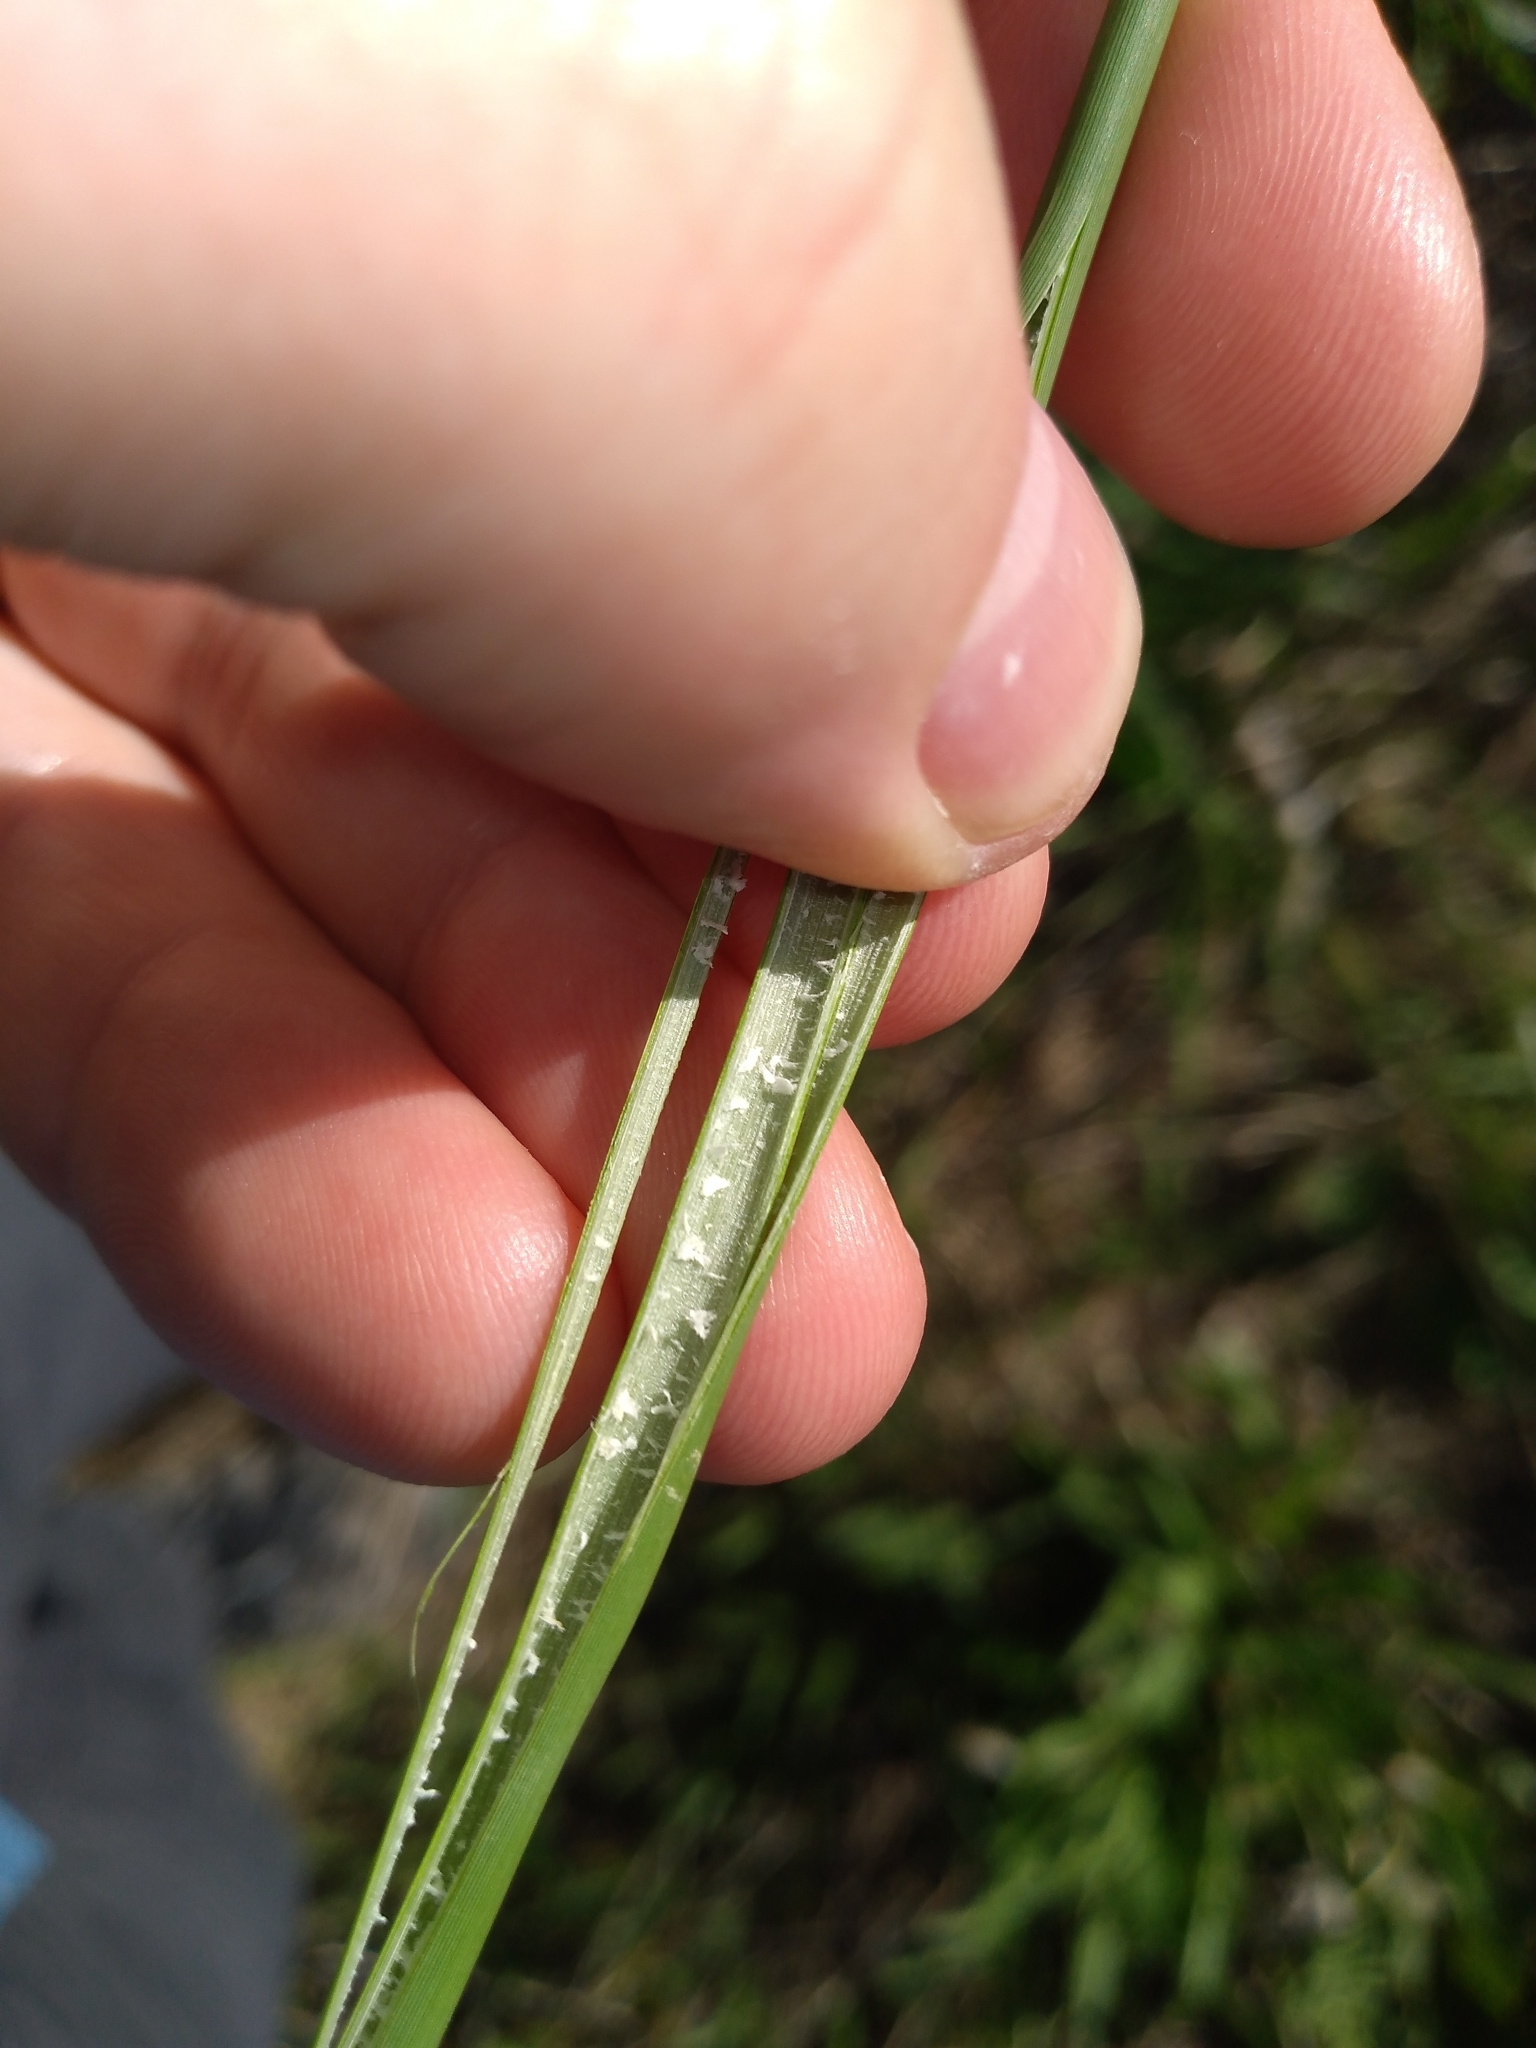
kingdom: Plantae
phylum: Tracheophyta
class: Liliopsida
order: Poales
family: Juncaceae
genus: Juncus
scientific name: Juncus australis
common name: Austral rush
